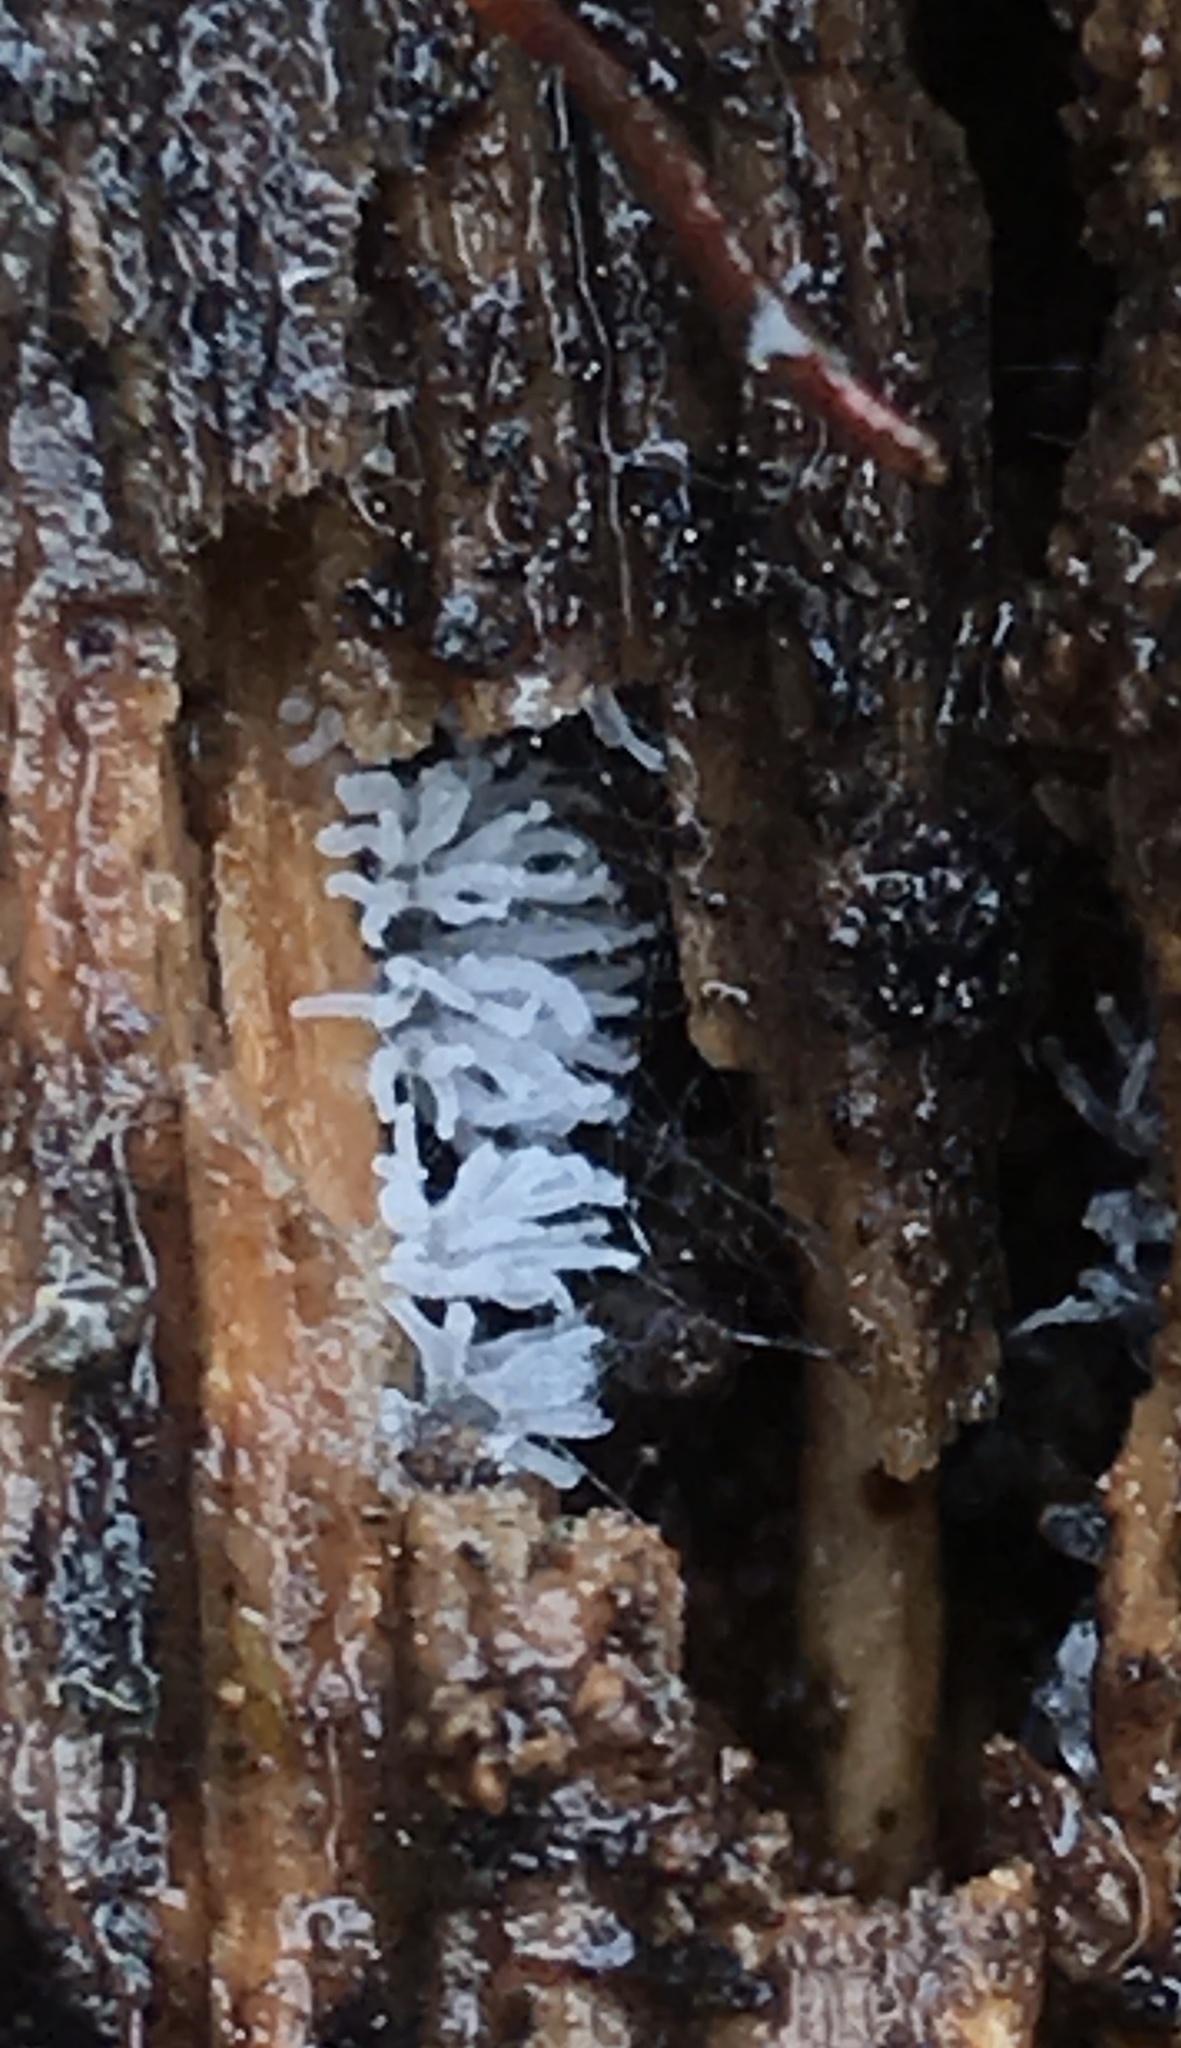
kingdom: Protozoa
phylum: Mycetozoa
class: Protosteliomycetes
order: Ceratiomyxales
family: Ceratiomyxaceae
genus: Ceratiomyxa
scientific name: Ceratiomyxa fruticulosa
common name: Honeycomb coral slime mold
